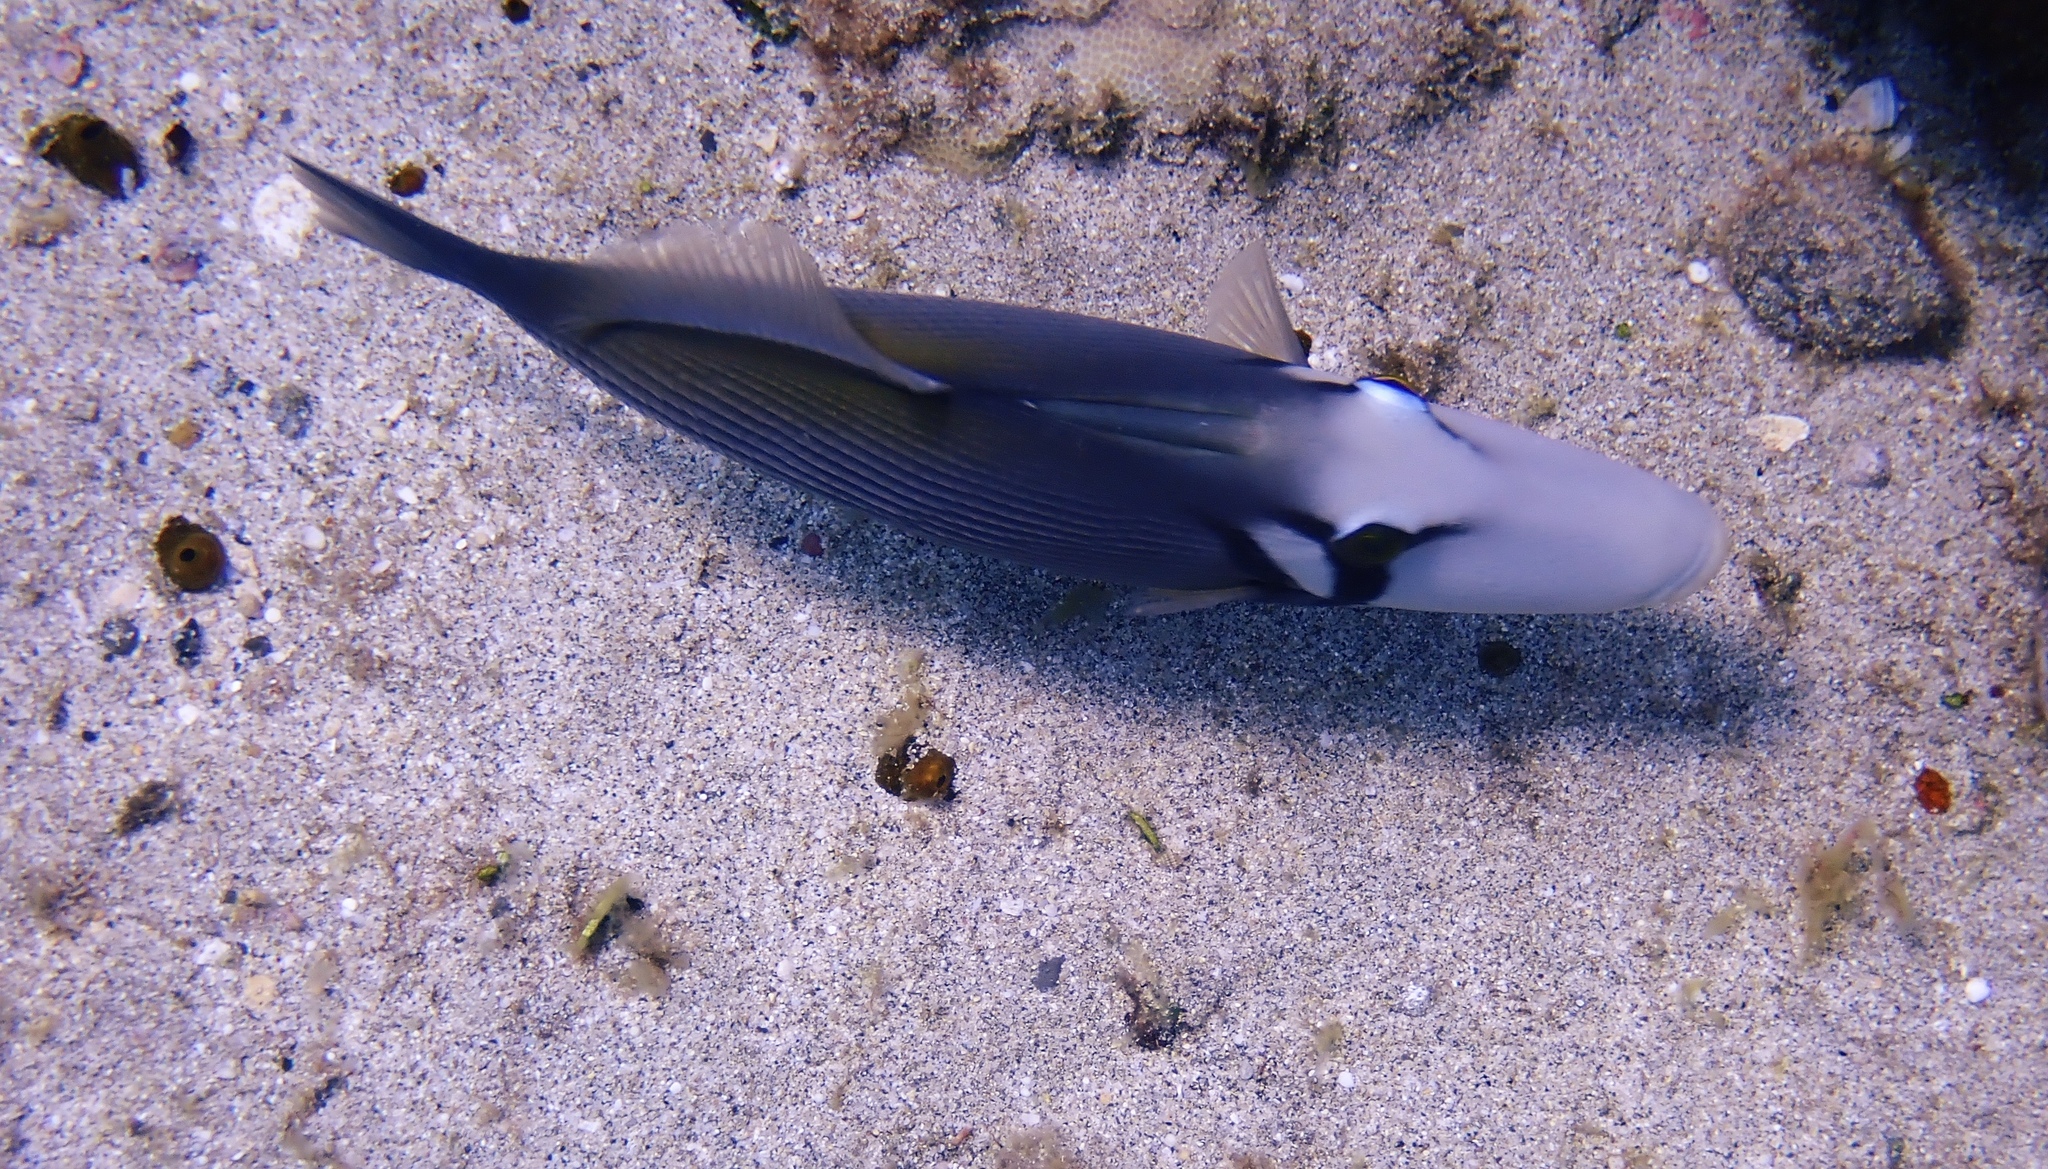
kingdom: Animalia
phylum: Chordata
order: Tetraodontiformes
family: Balistidae
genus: Sufflamen
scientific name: Sufflamen bursa
